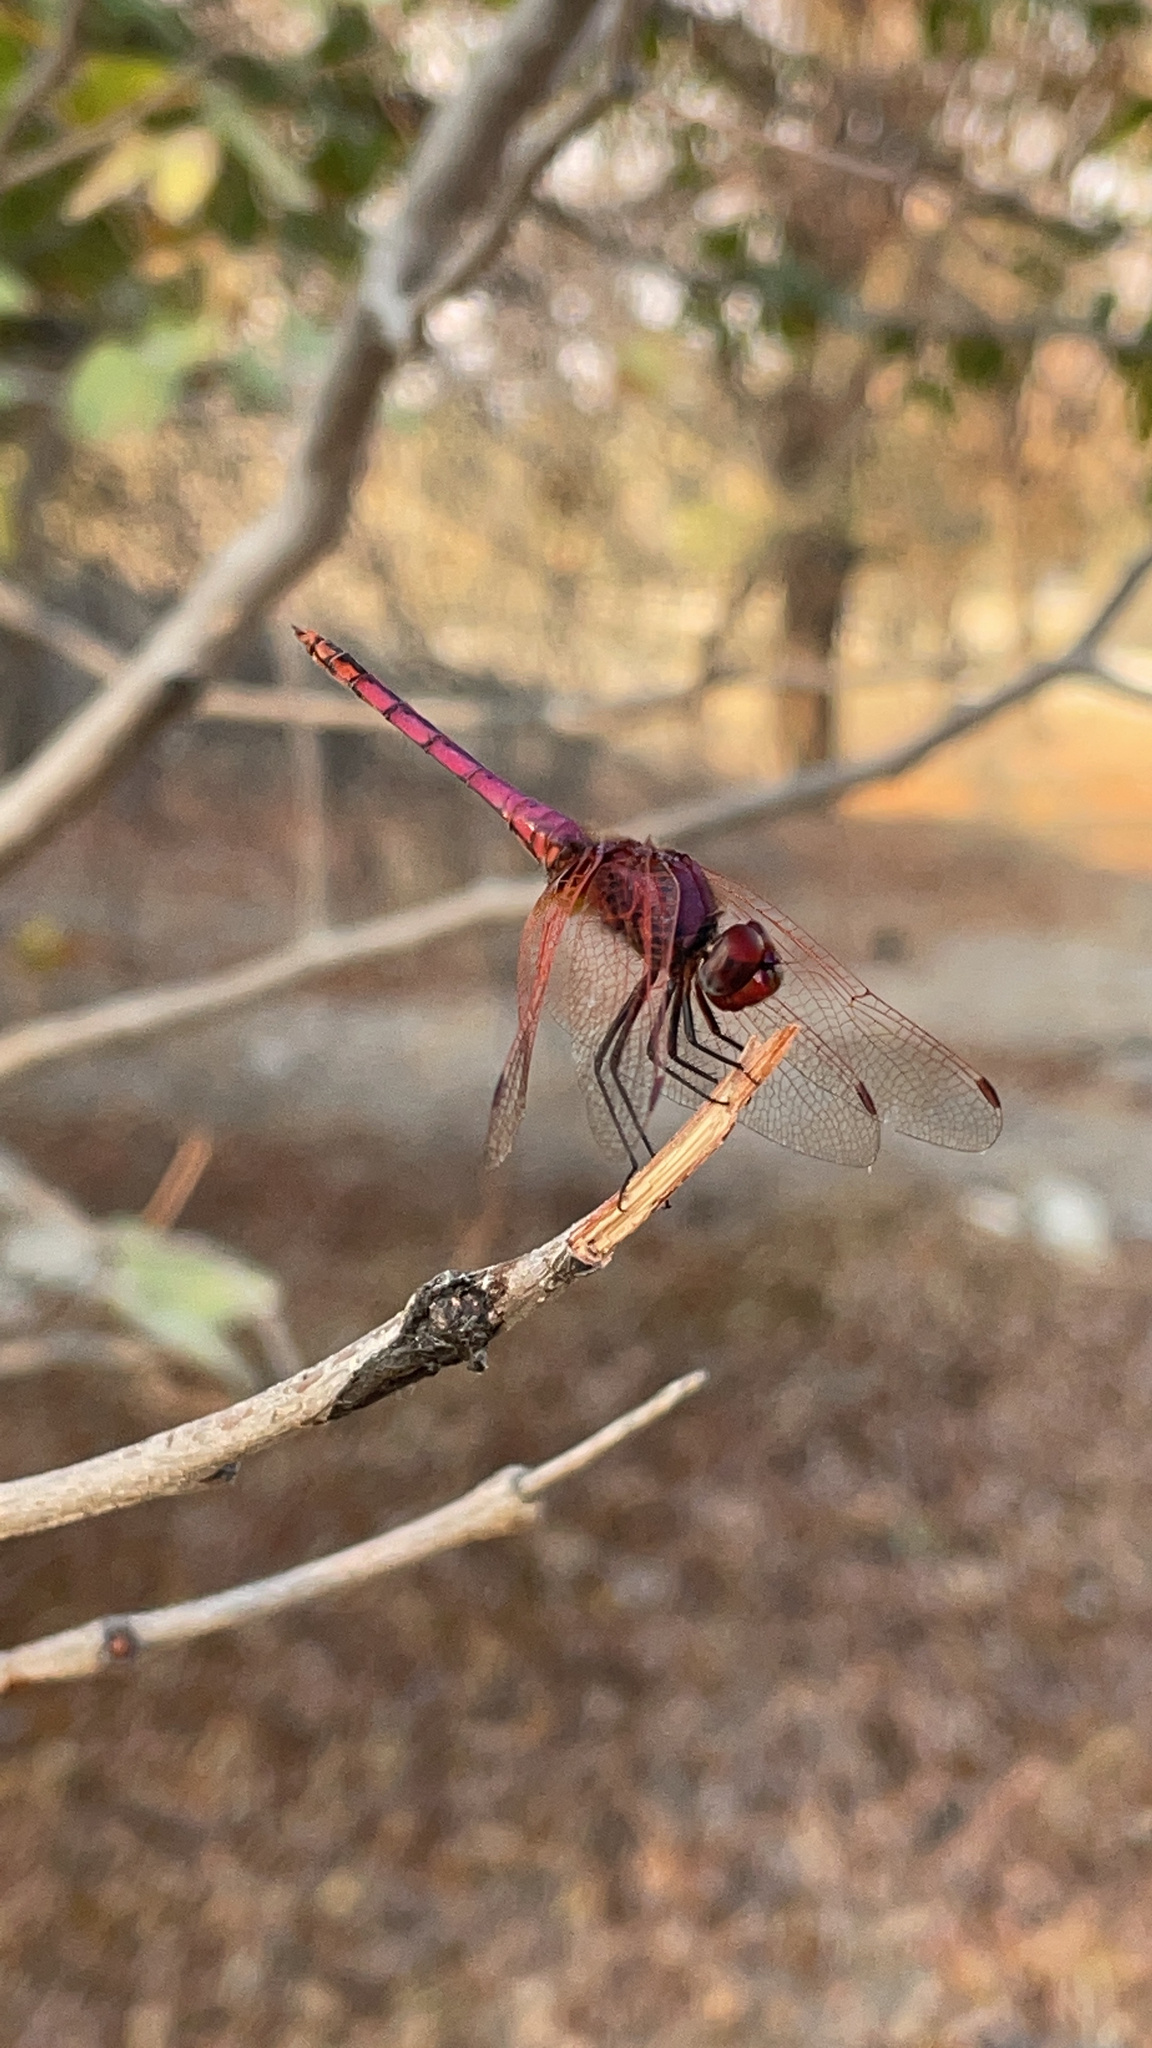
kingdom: Animalia
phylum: Arthropoda
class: Insecta
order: Odonata
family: Libellulidae
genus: Trithemis
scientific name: Trithemis annulata
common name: Violet dropwing
